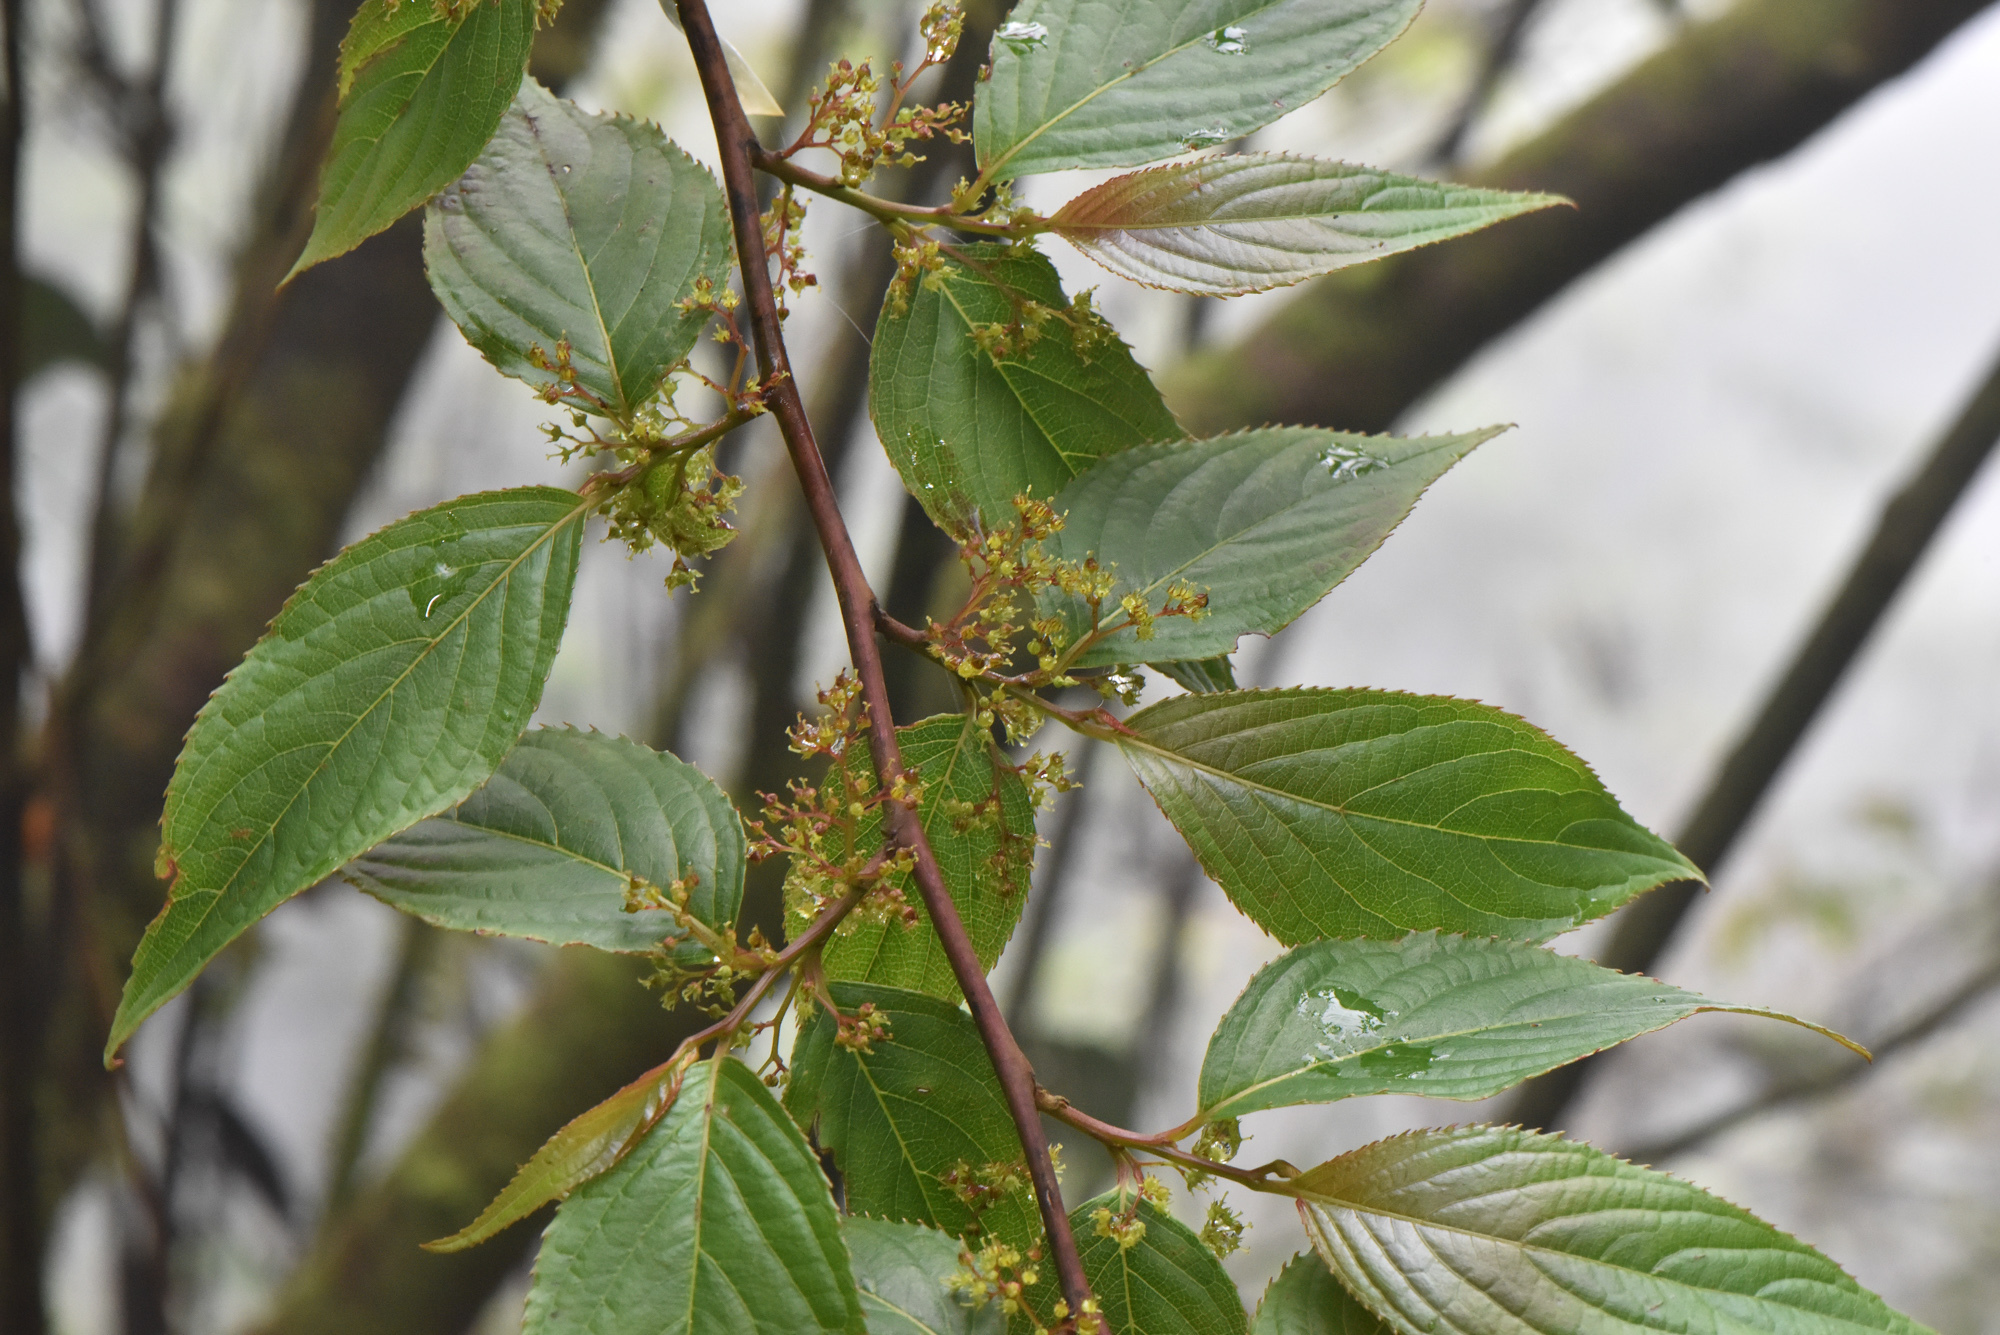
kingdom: Plantae
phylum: Tracheophyta
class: Magnoliopsida
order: Huerteales
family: Dipentodontaceae
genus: Perrottetia
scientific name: Perrottetia arisanensis
